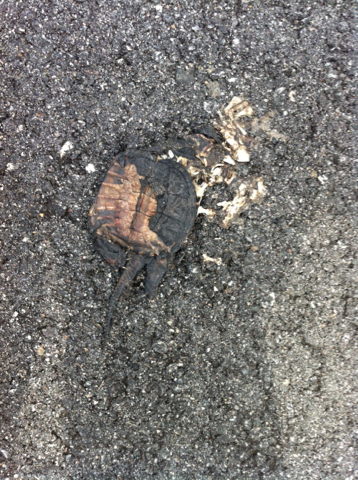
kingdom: Animalia
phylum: Chordata
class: Testudines
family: Chelydridae
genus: Chelydra
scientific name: Chelydra serpentina
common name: Common snapping turtle
